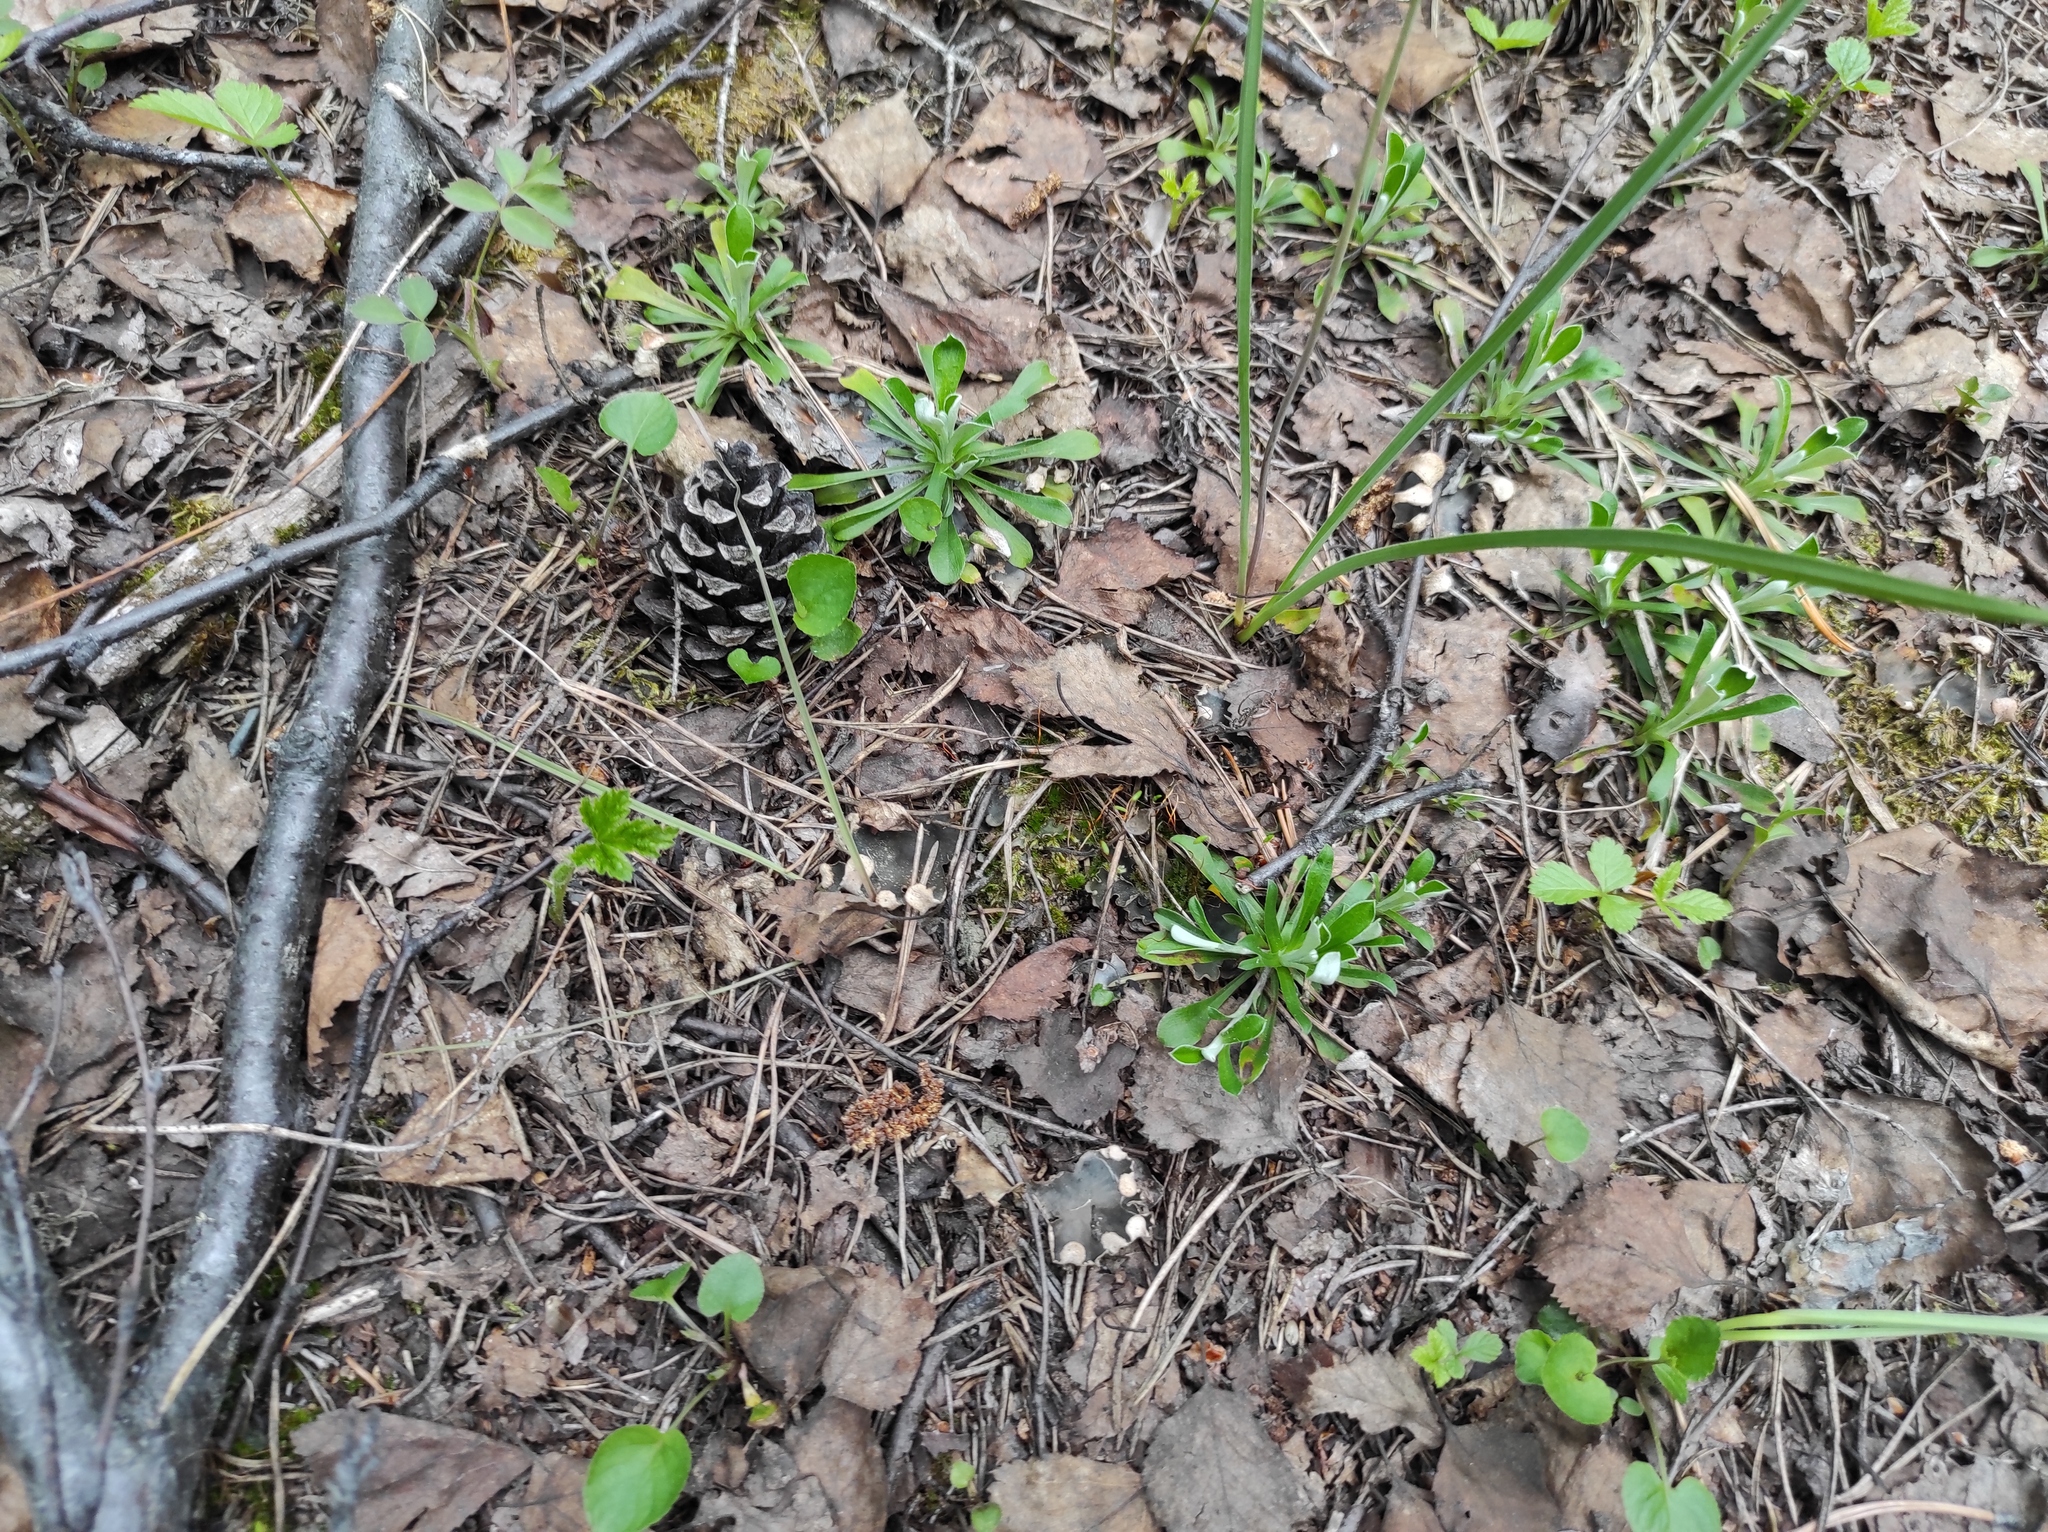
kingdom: Plantae
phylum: Tracheophyta
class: Pinopsida
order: Pinales
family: Pinaceae
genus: Pinus
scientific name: Pinus sylvestris
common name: Scots pine
